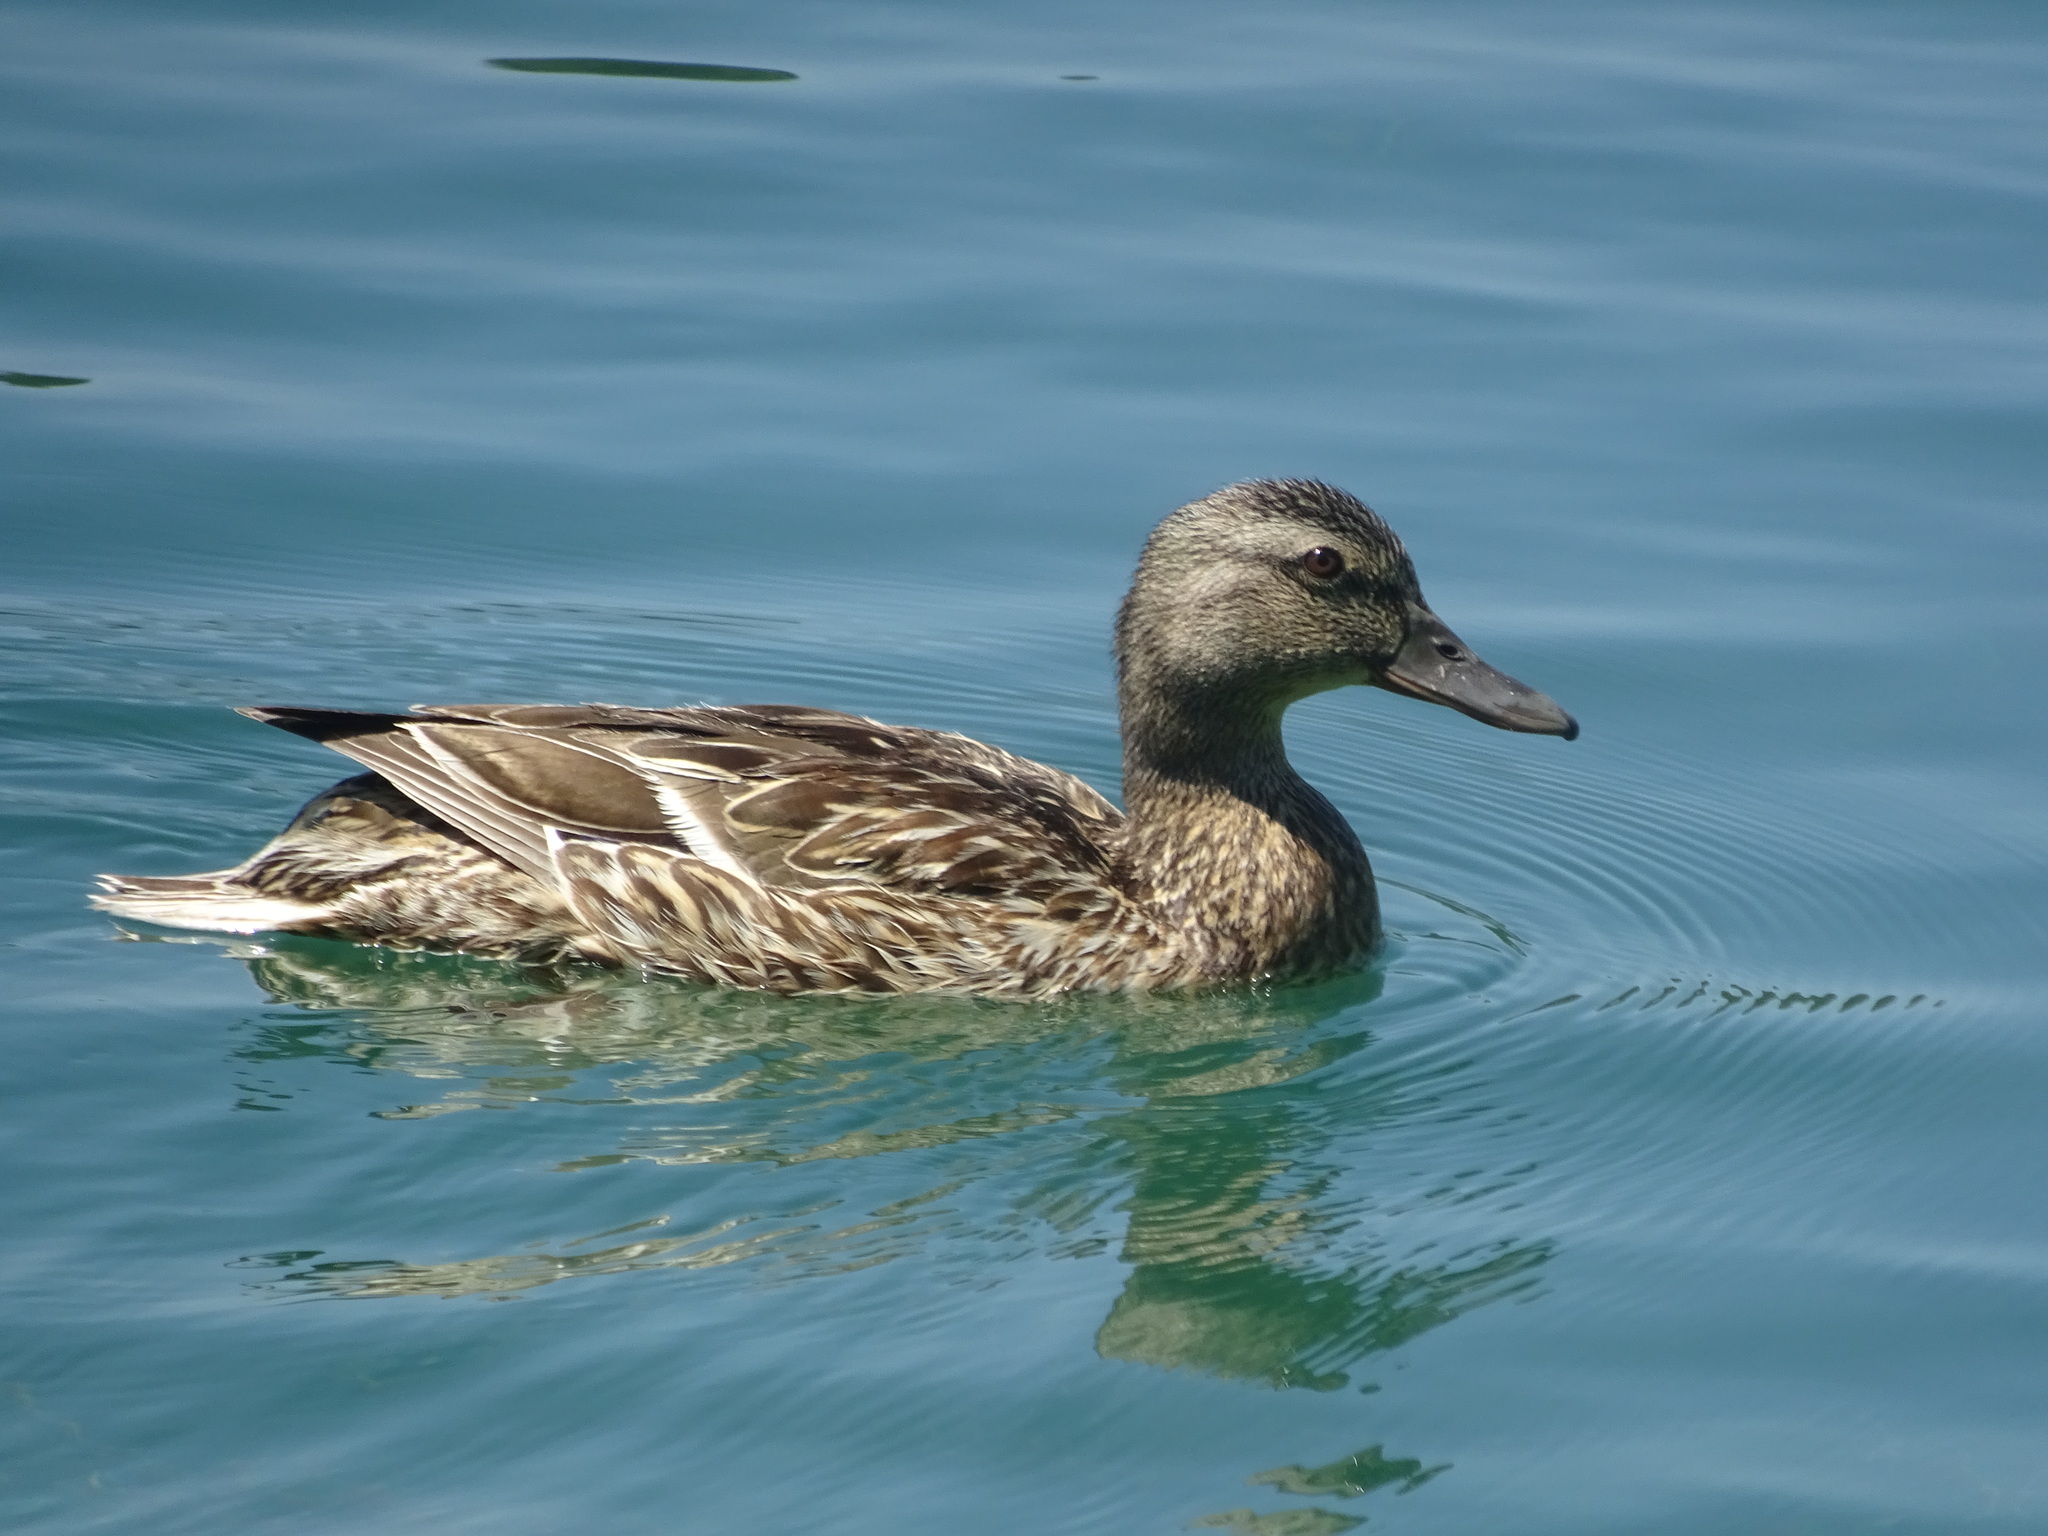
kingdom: Animalia
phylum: Chordata
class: Aves
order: Anseriformes
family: Anatidae
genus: Anas
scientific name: Anas platyrhynchos
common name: Mallard
